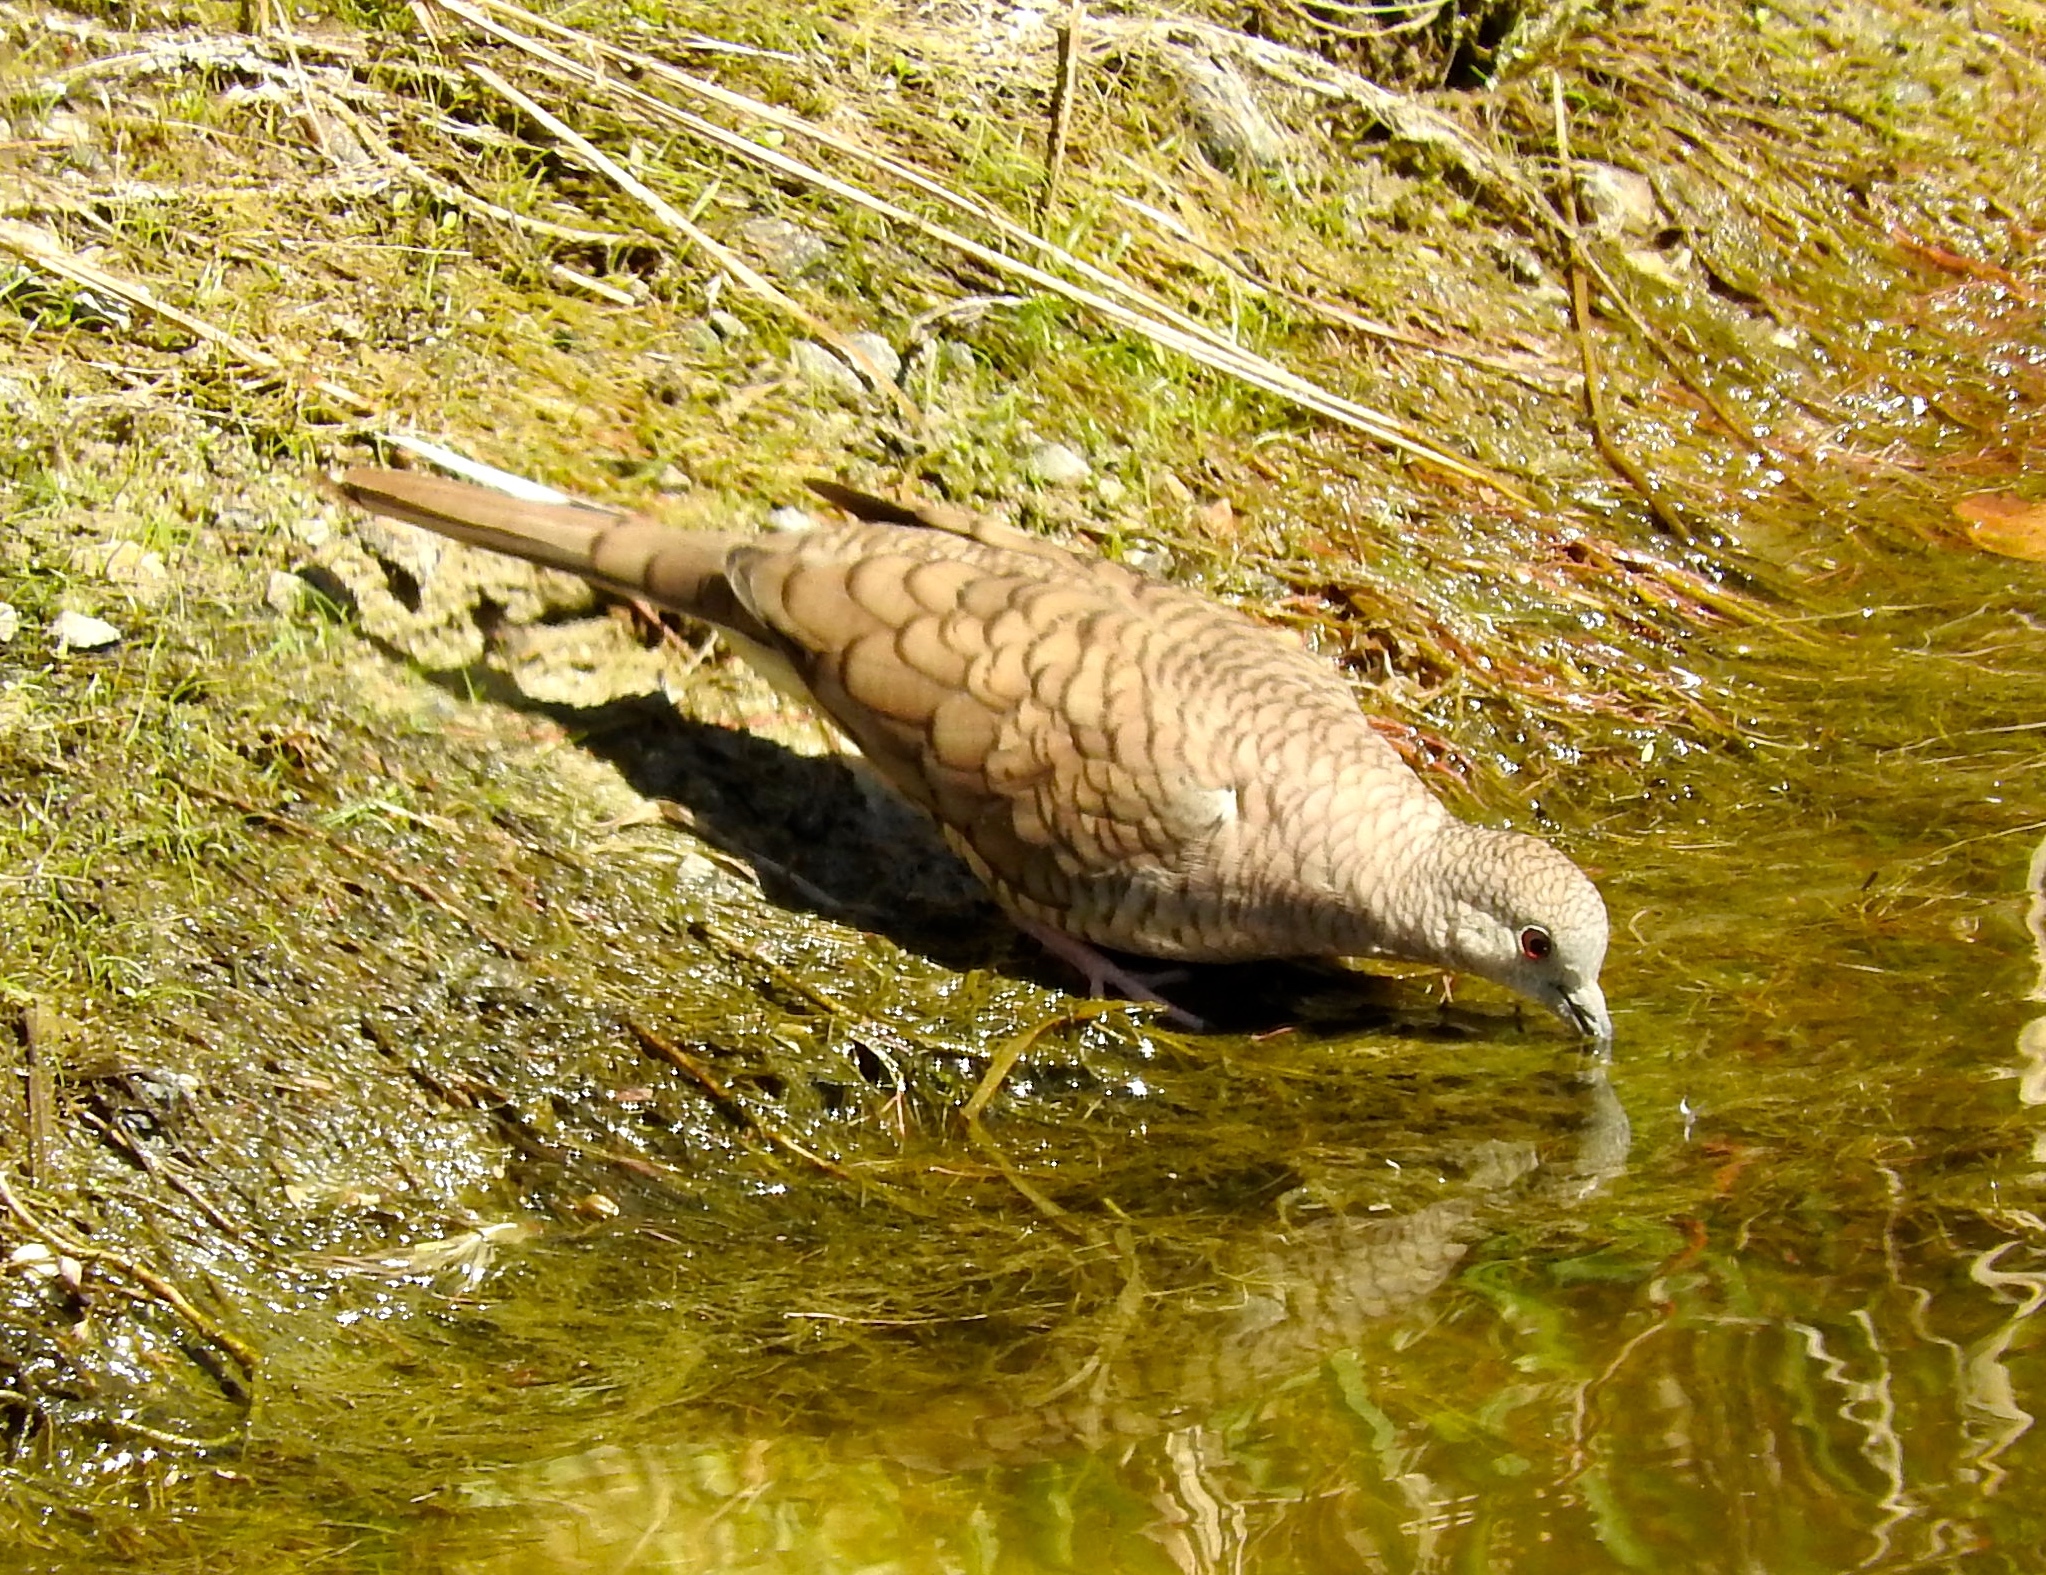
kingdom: Animalia
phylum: Chordata
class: Aves
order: Columbiformes
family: Columbidae
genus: Columbina
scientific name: Columbina inca
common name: Inca dove
